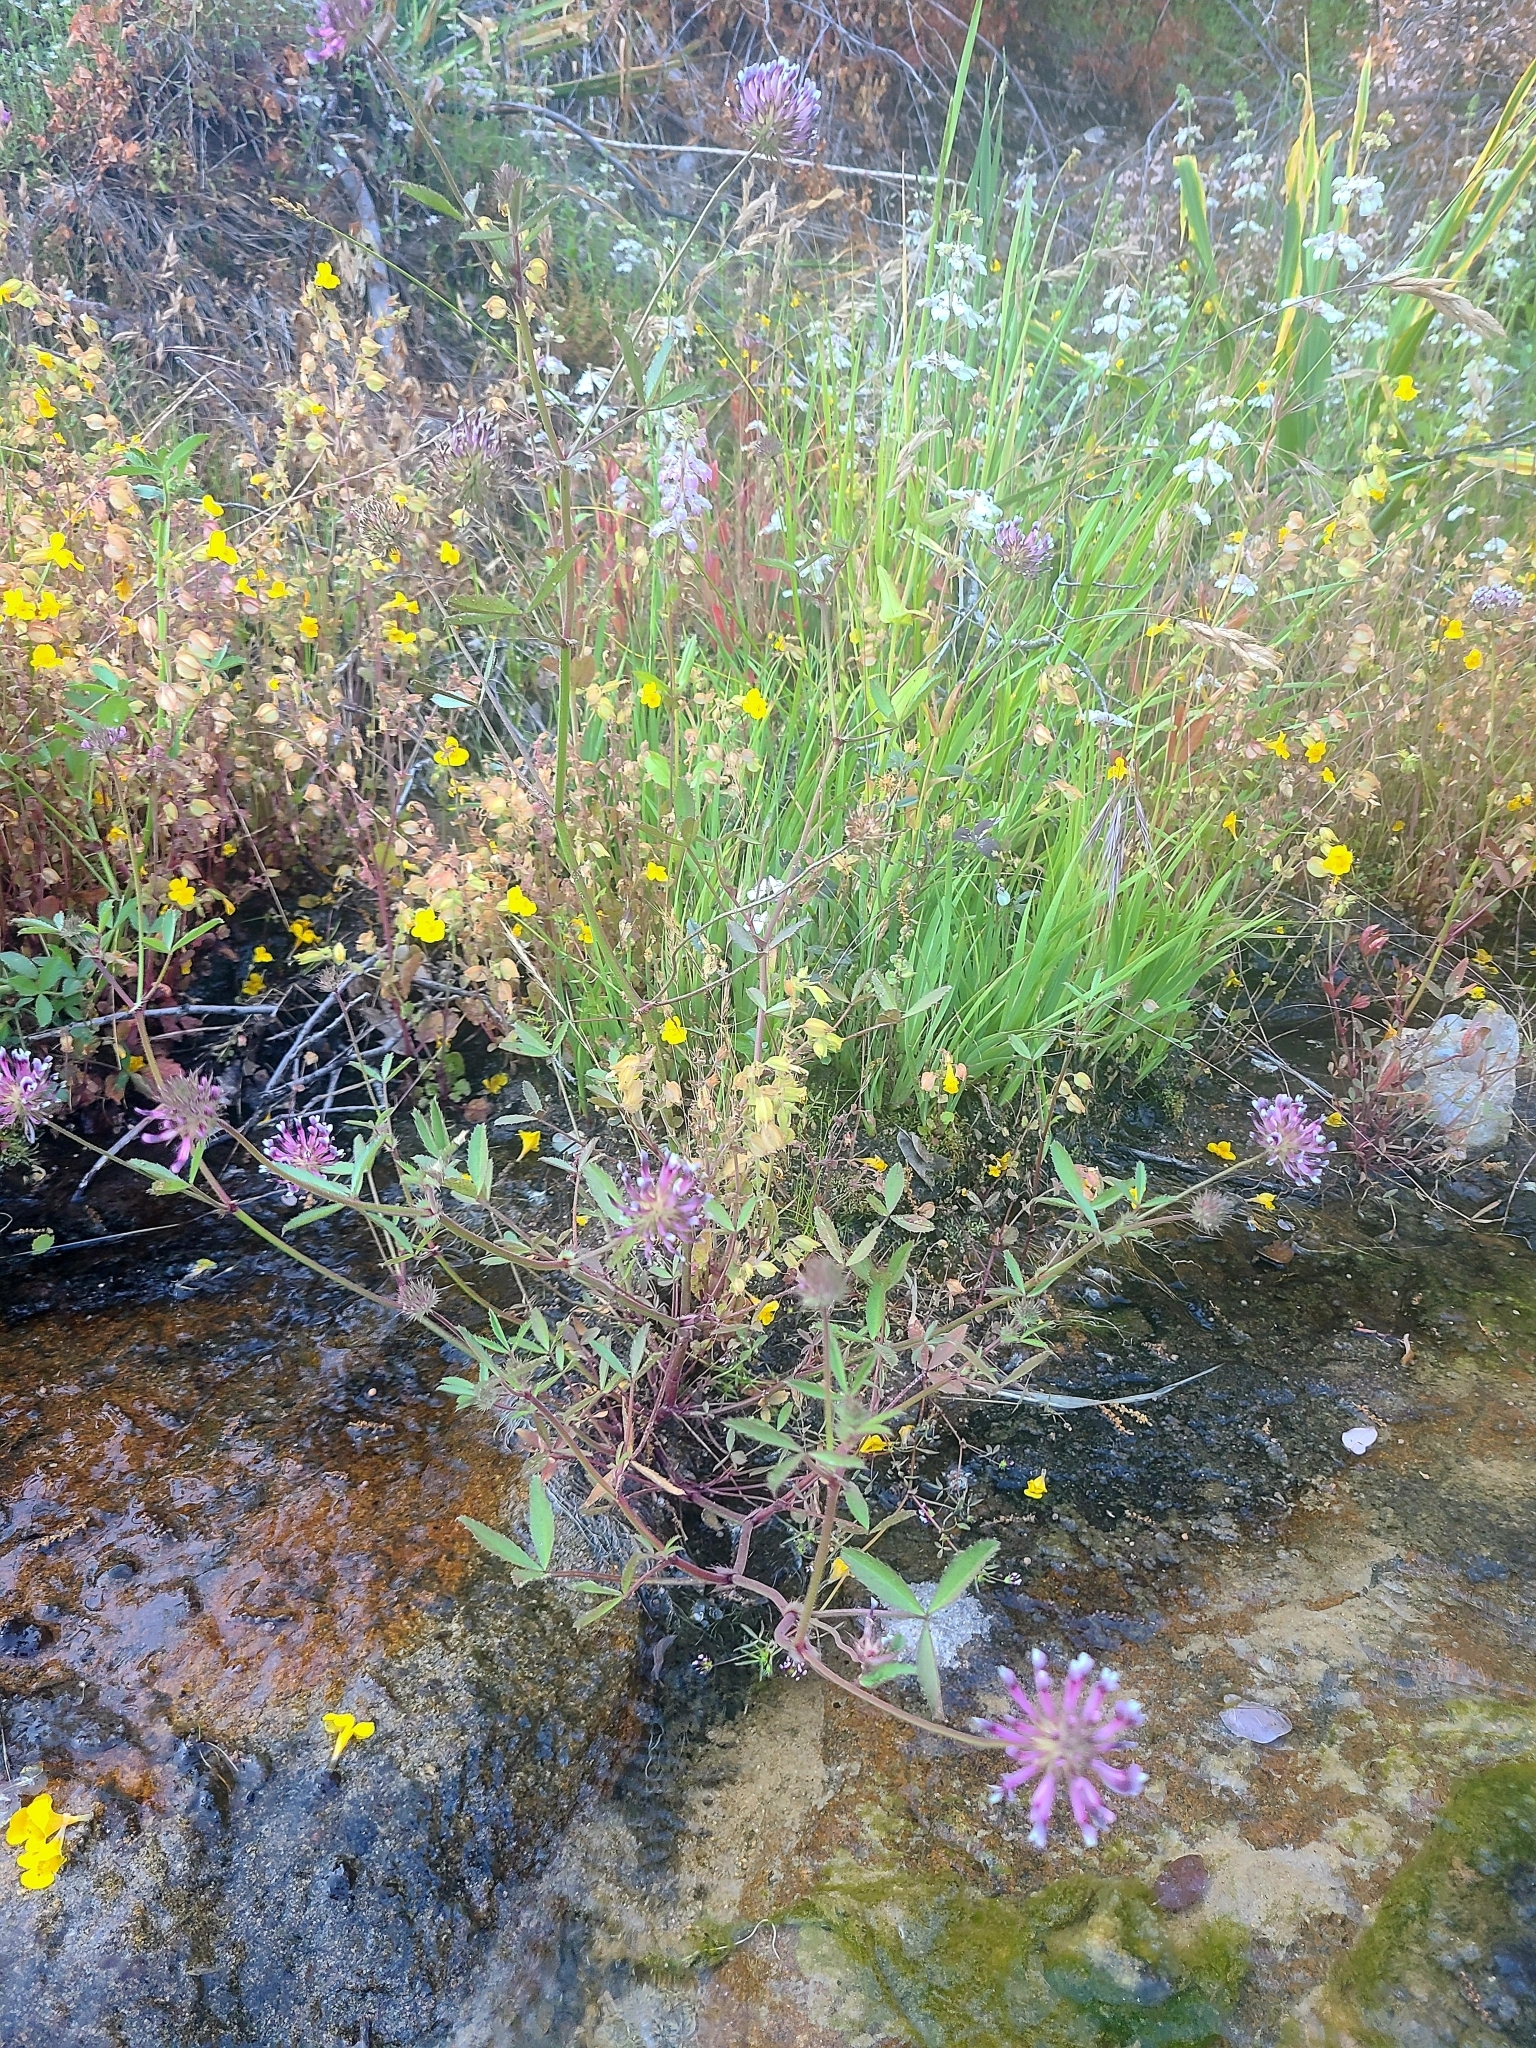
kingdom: Plantae
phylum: Tracheophyta
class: Magnoliopsida
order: Fabales
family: Fabaceae
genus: Trifolium
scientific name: Trifolium willdenovii
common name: Tomcat clover
